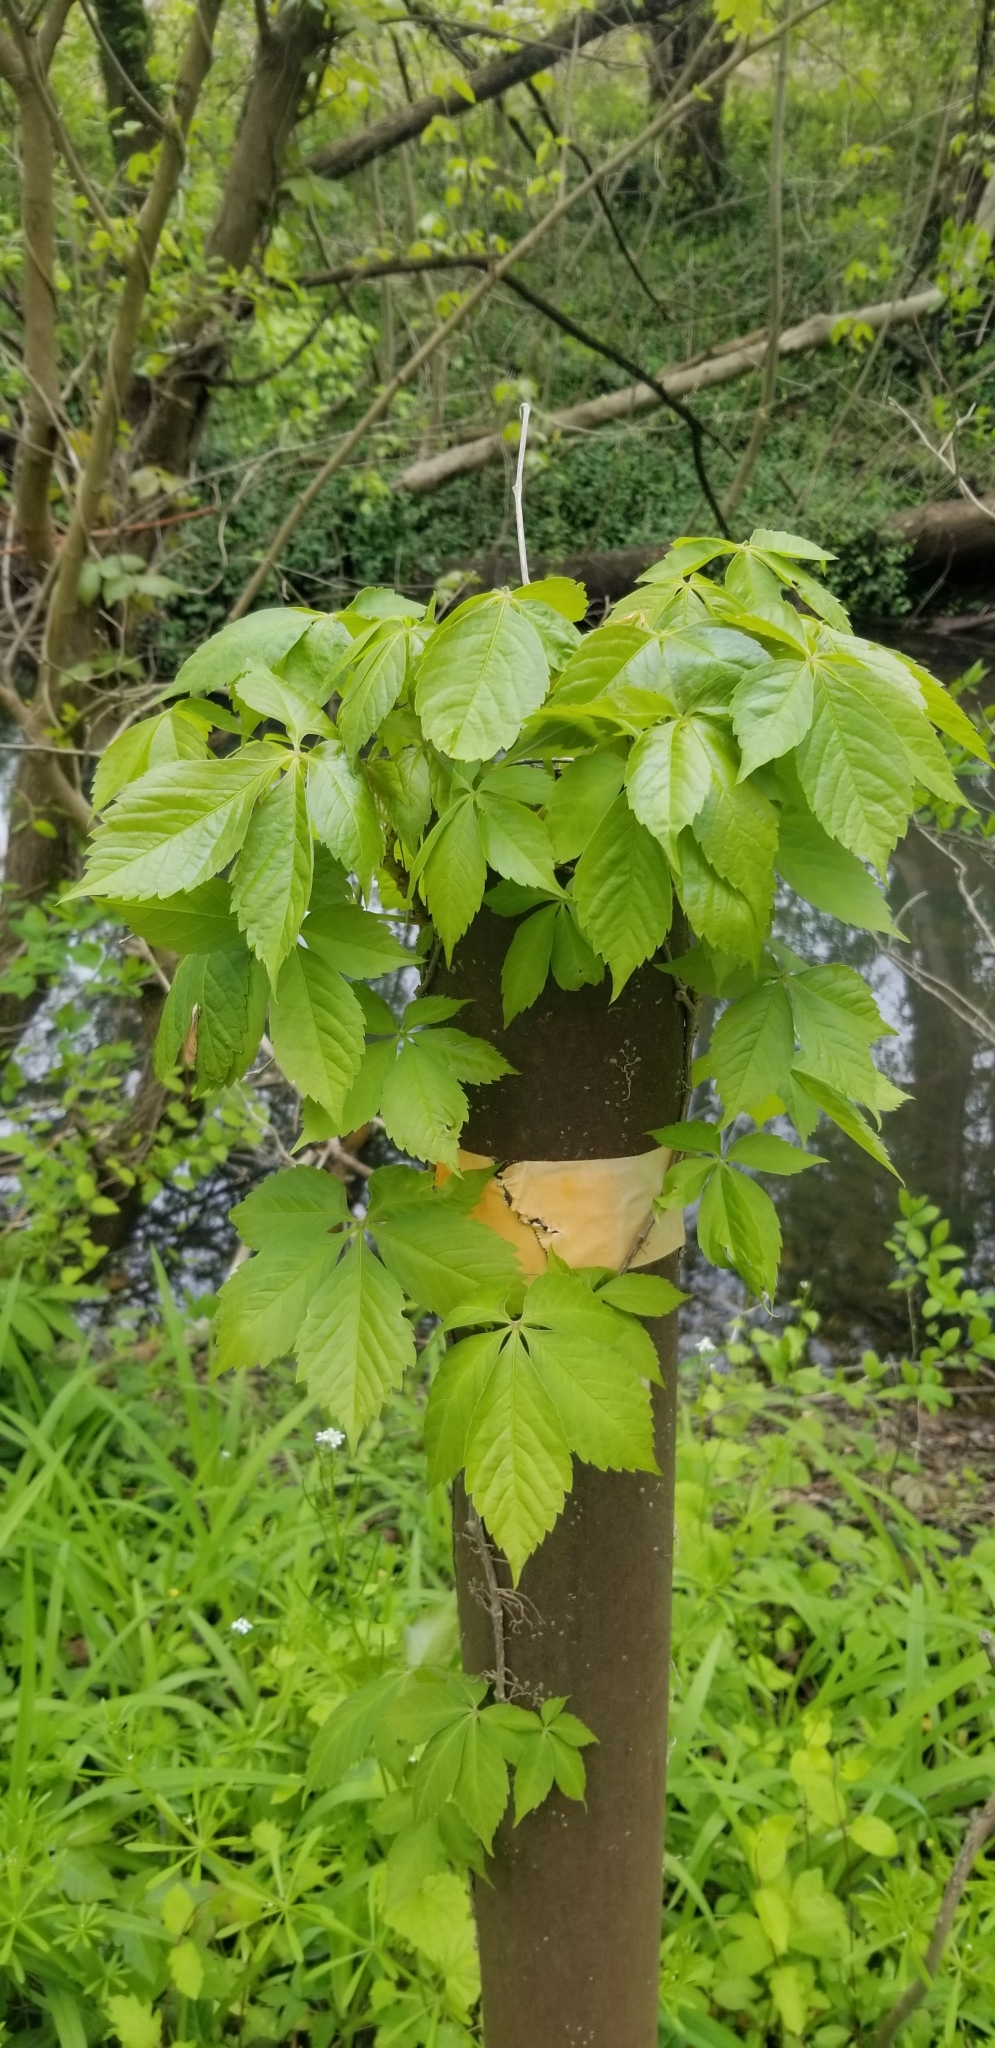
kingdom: Plantae
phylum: Tracheophyta
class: Magnoliopsida
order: Vitales
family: Vitaceae
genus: Parthenocissus
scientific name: Parthenocissus quinquefolia
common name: Virginia-creeper
